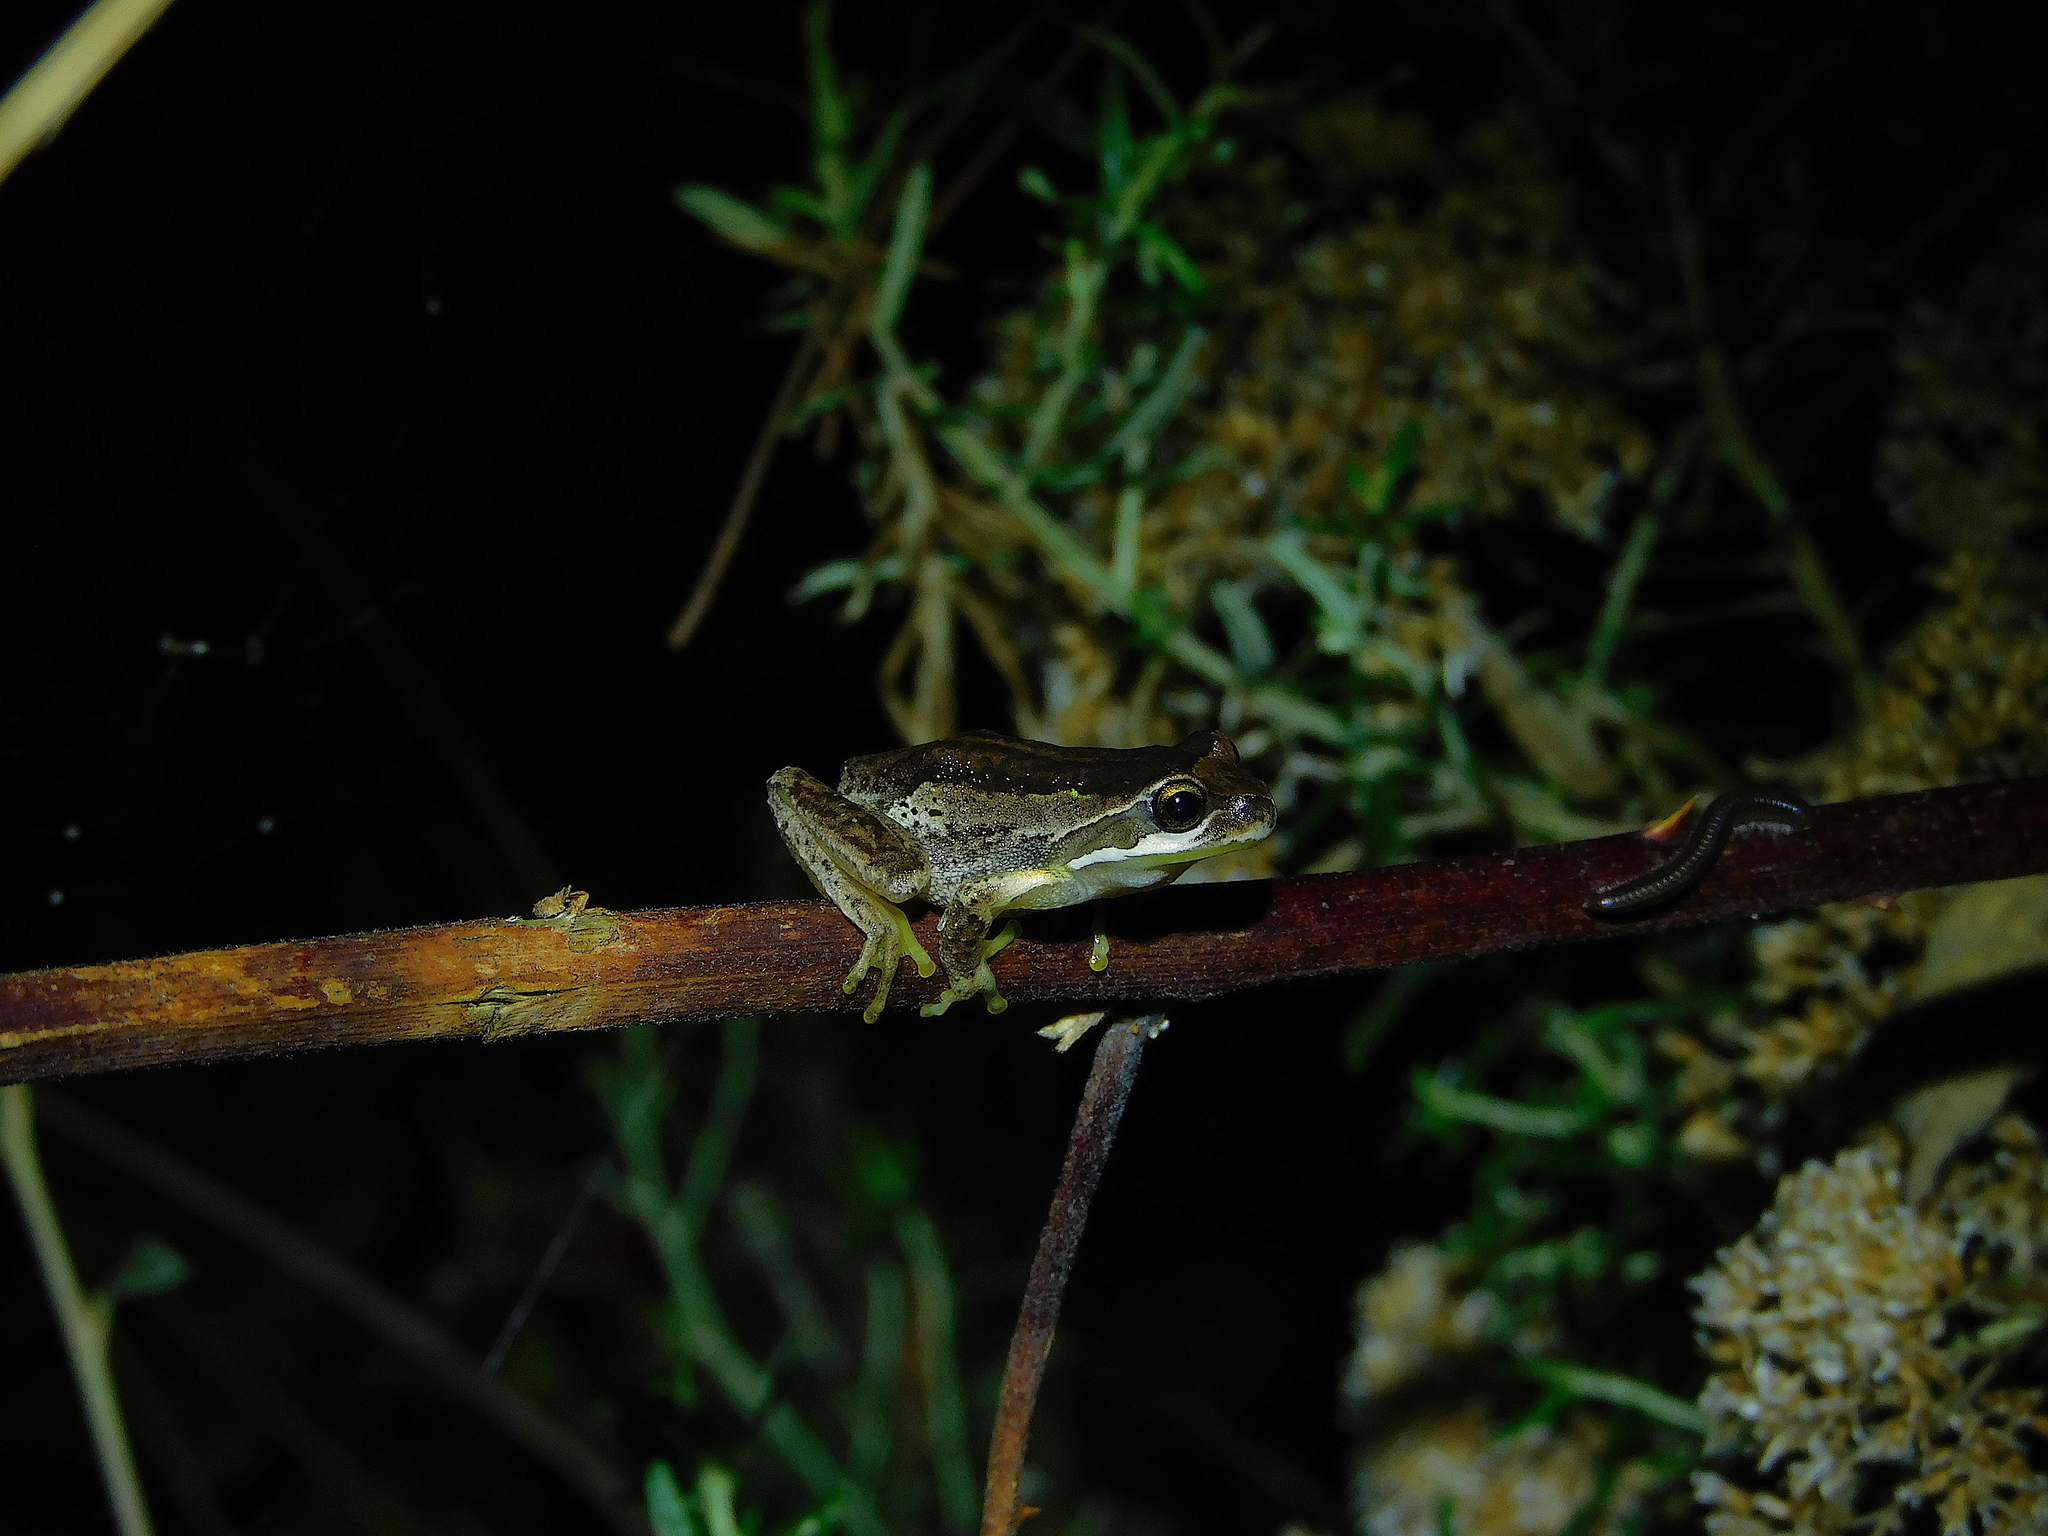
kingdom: Animalia
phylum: Chordata
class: Amphibia
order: Anura
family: Pelodryadidae
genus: Litoria
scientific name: Litoria ewingii
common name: Southern brown tree frog
